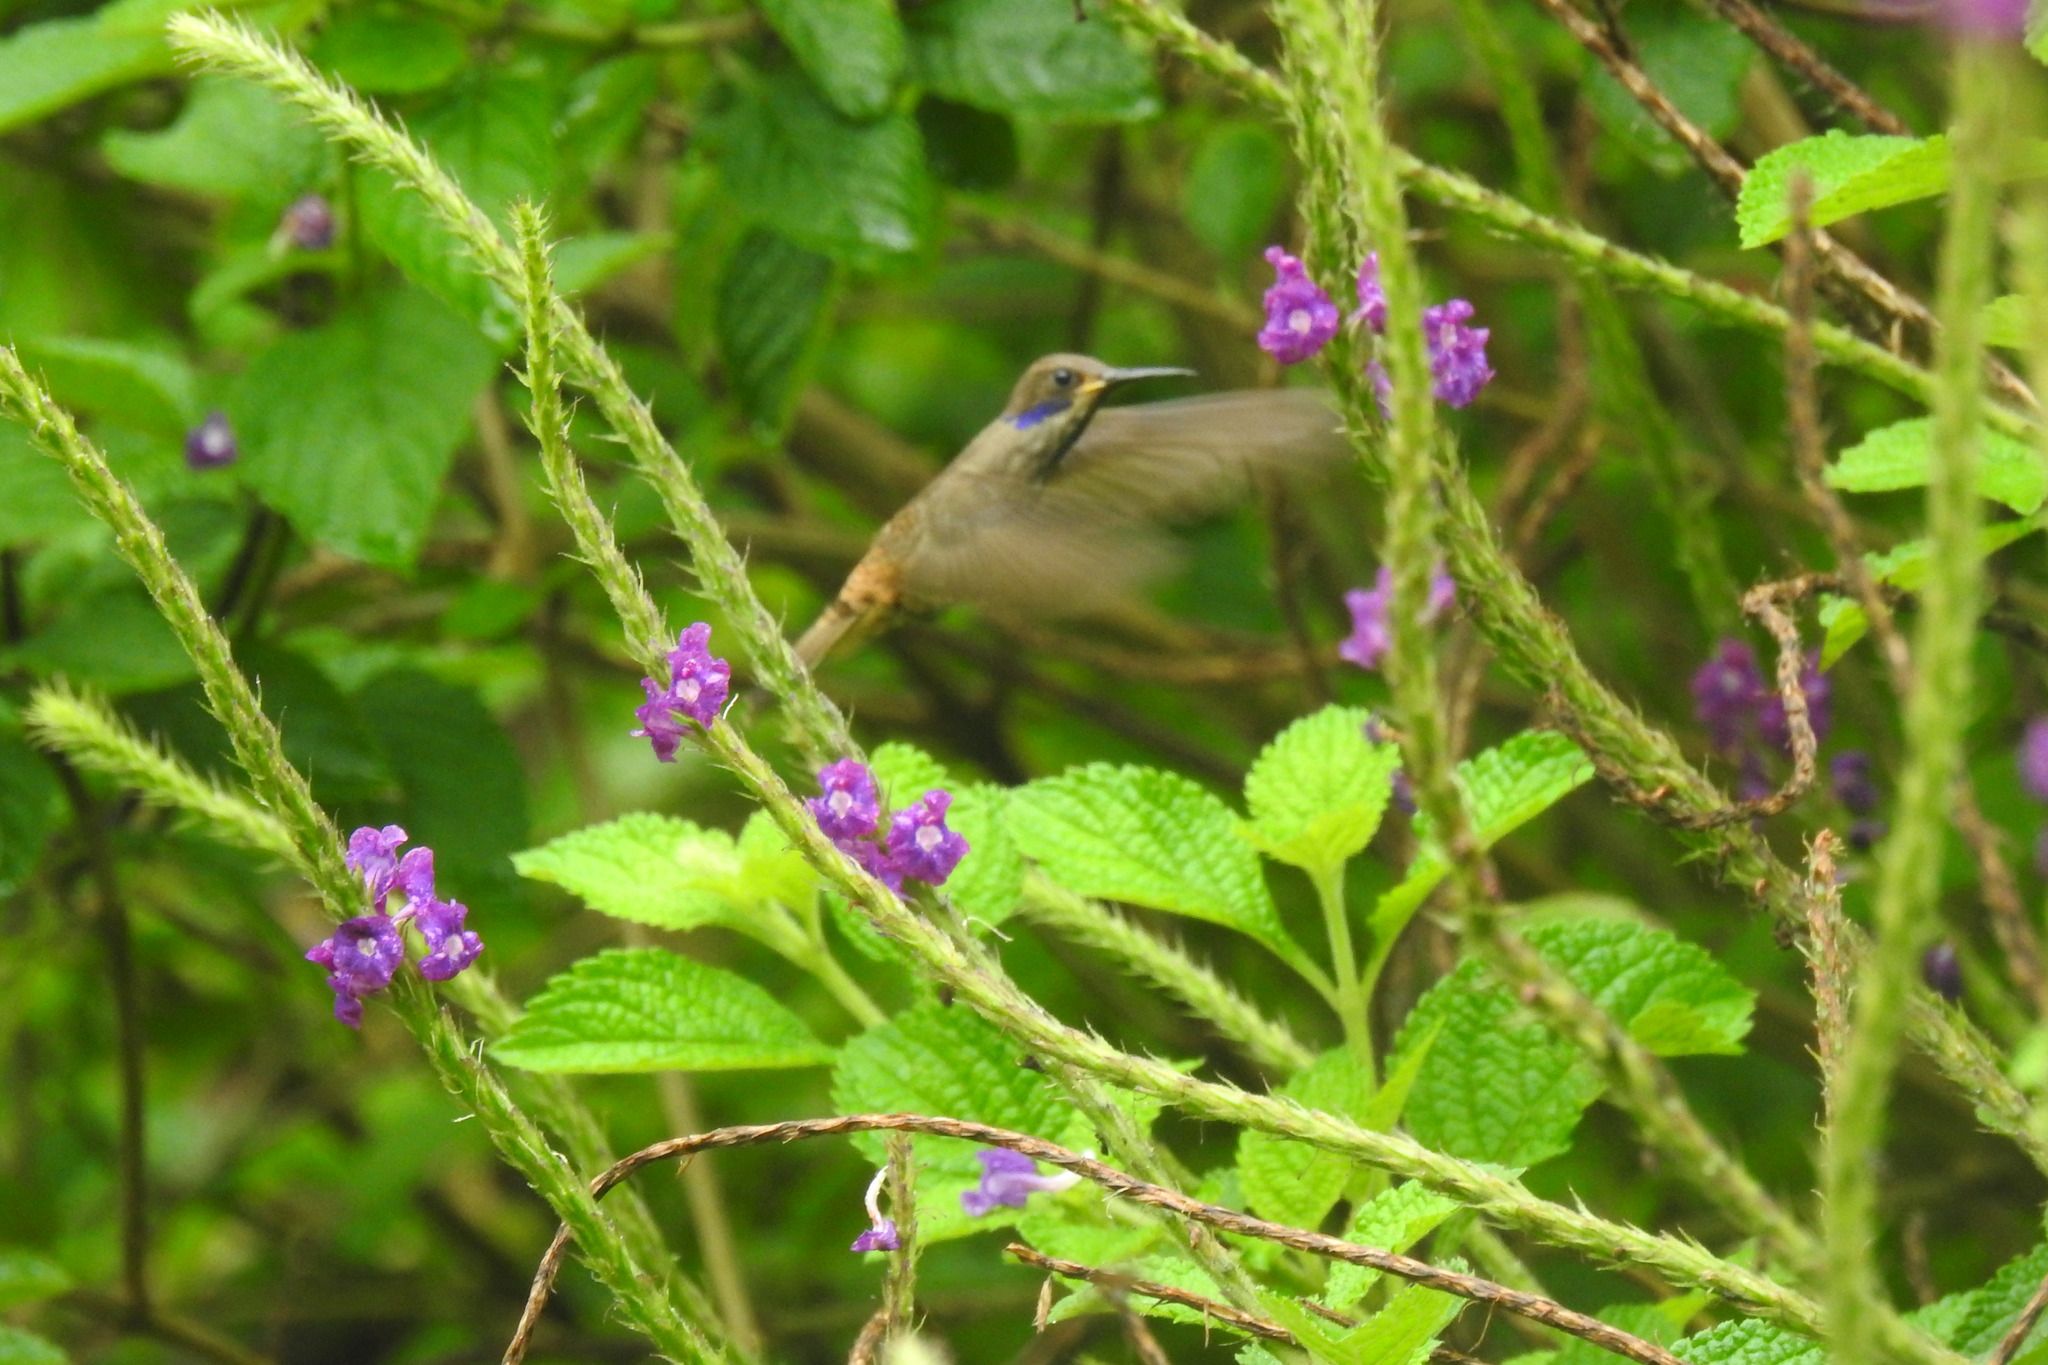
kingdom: Animalia
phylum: Chordata
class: Aves
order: Apodiformes
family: Trochilidae
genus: Colibri
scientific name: Colibri delphinae
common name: Brown violetear
